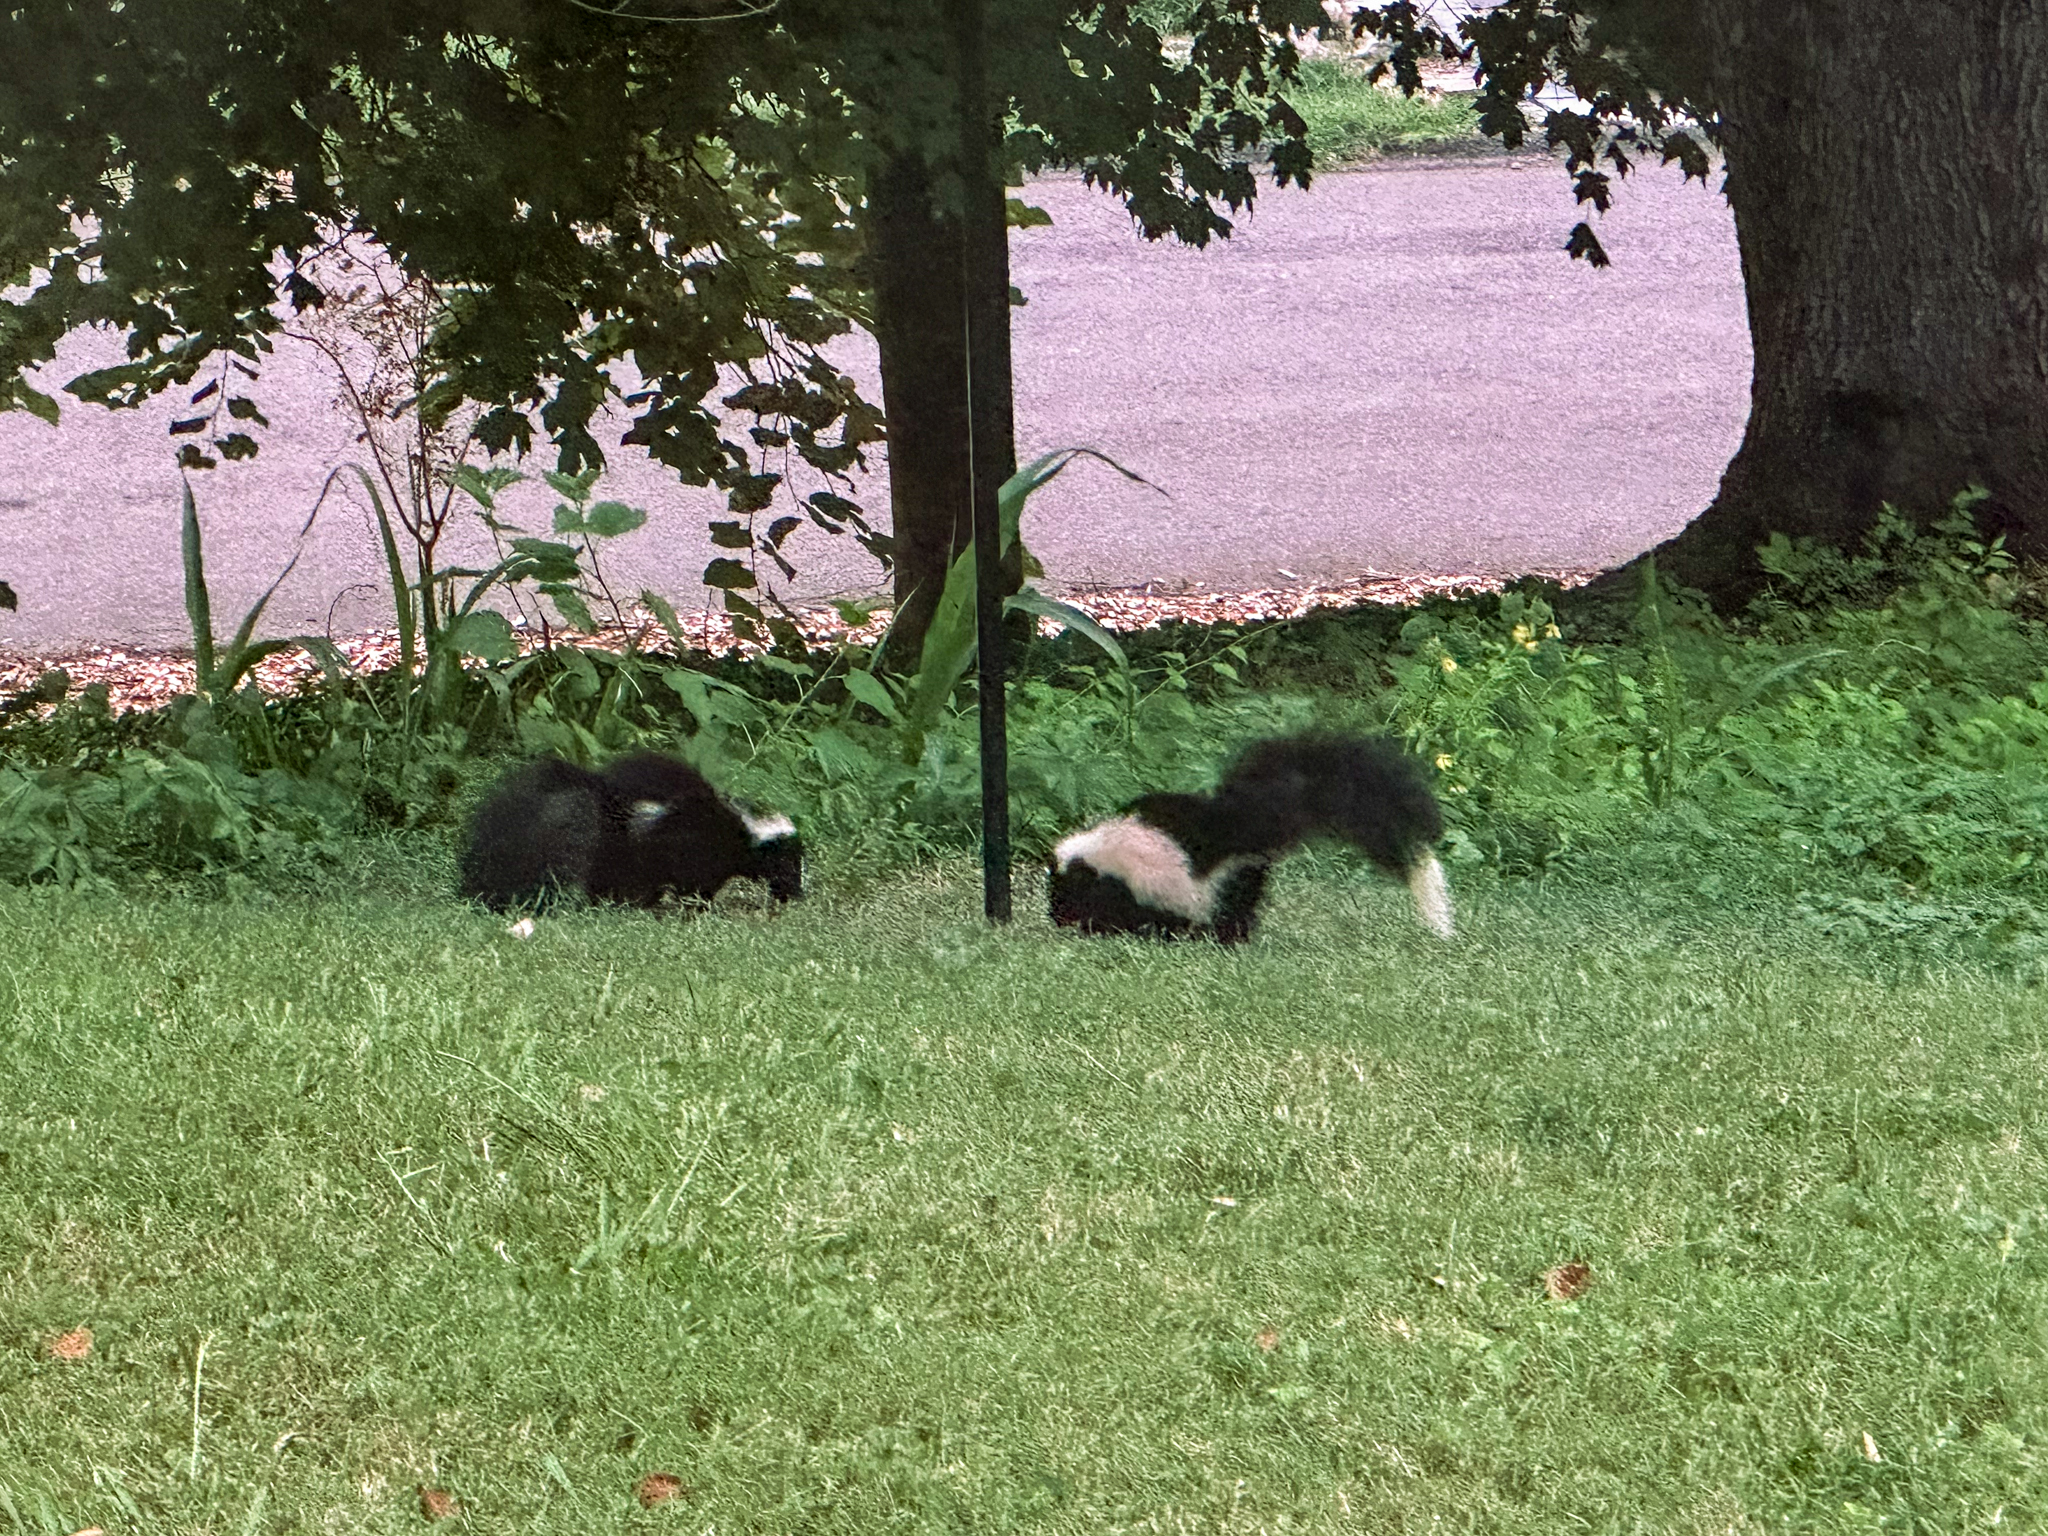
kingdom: Animalia
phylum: Chordata
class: Mammalia
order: Carnivora
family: Mephitidae
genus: Mephitis
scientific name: Mephitis mephitis
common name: Striped skunk
